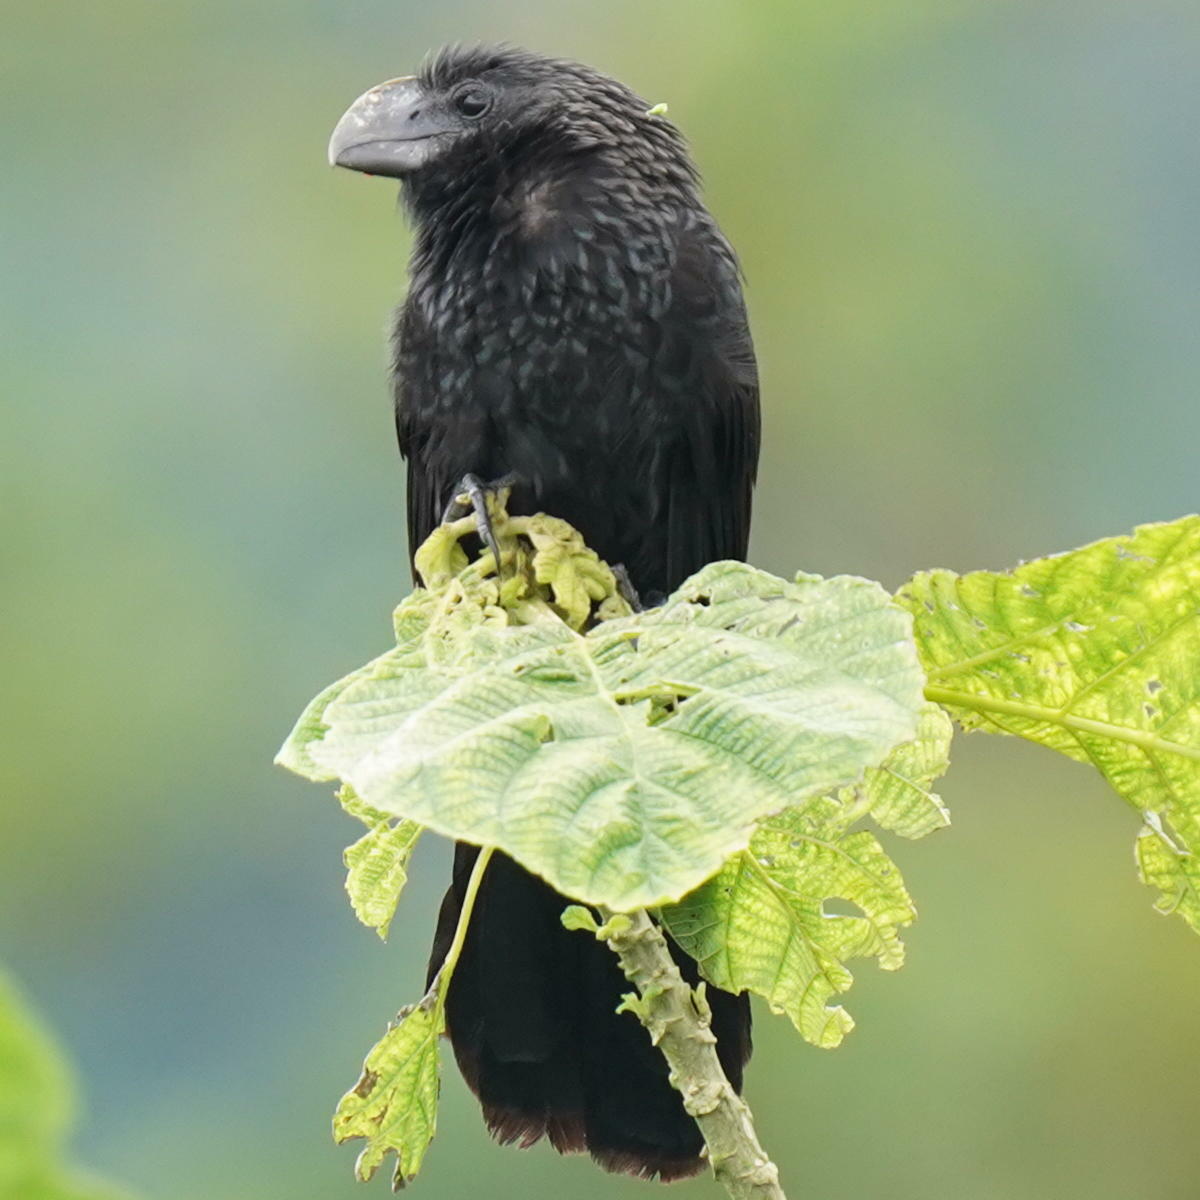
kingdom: Animalia
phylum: Chordata
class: Aves
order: Cuculiformes
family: Cuculidae
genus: Crotophaga
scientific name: Crotophaga ani
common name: Smooth-billed ani
